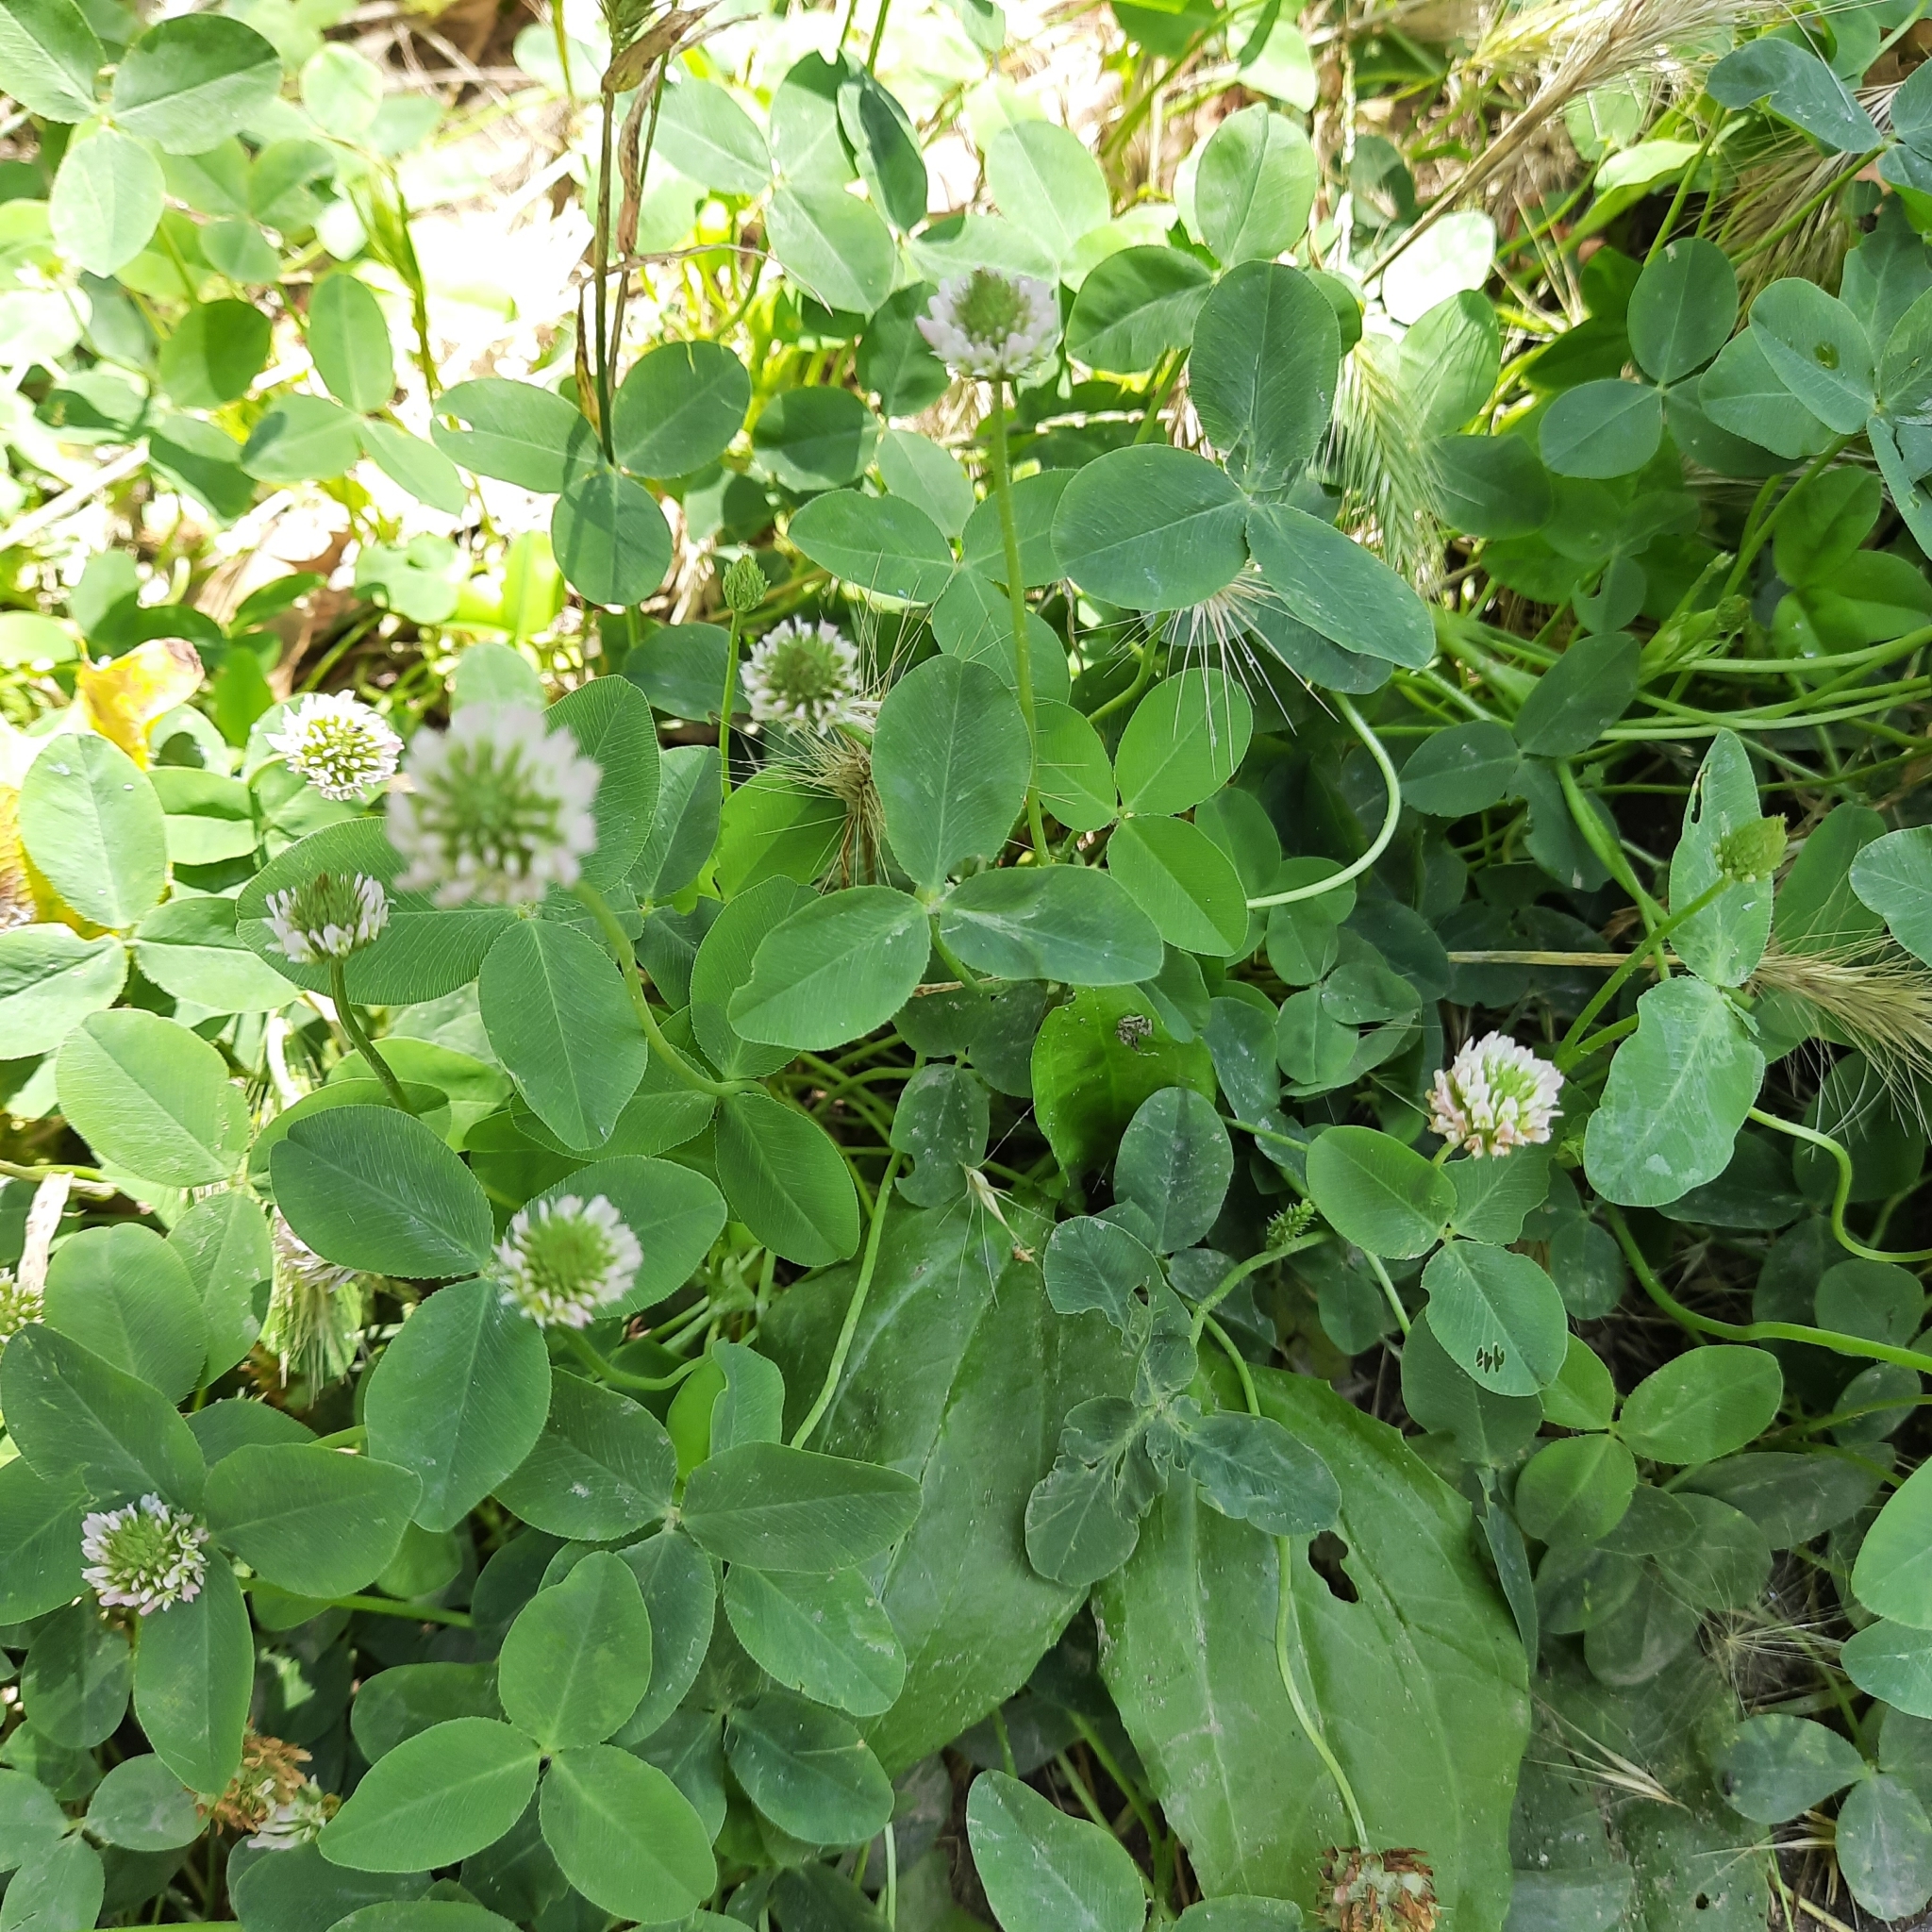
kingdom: Plantae
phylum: Tracheophyta
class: Magnoliopsida
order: Fabales
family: Fabaceae
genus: Trifolium
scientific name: Trifolium ambiguum
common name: Kura clover
